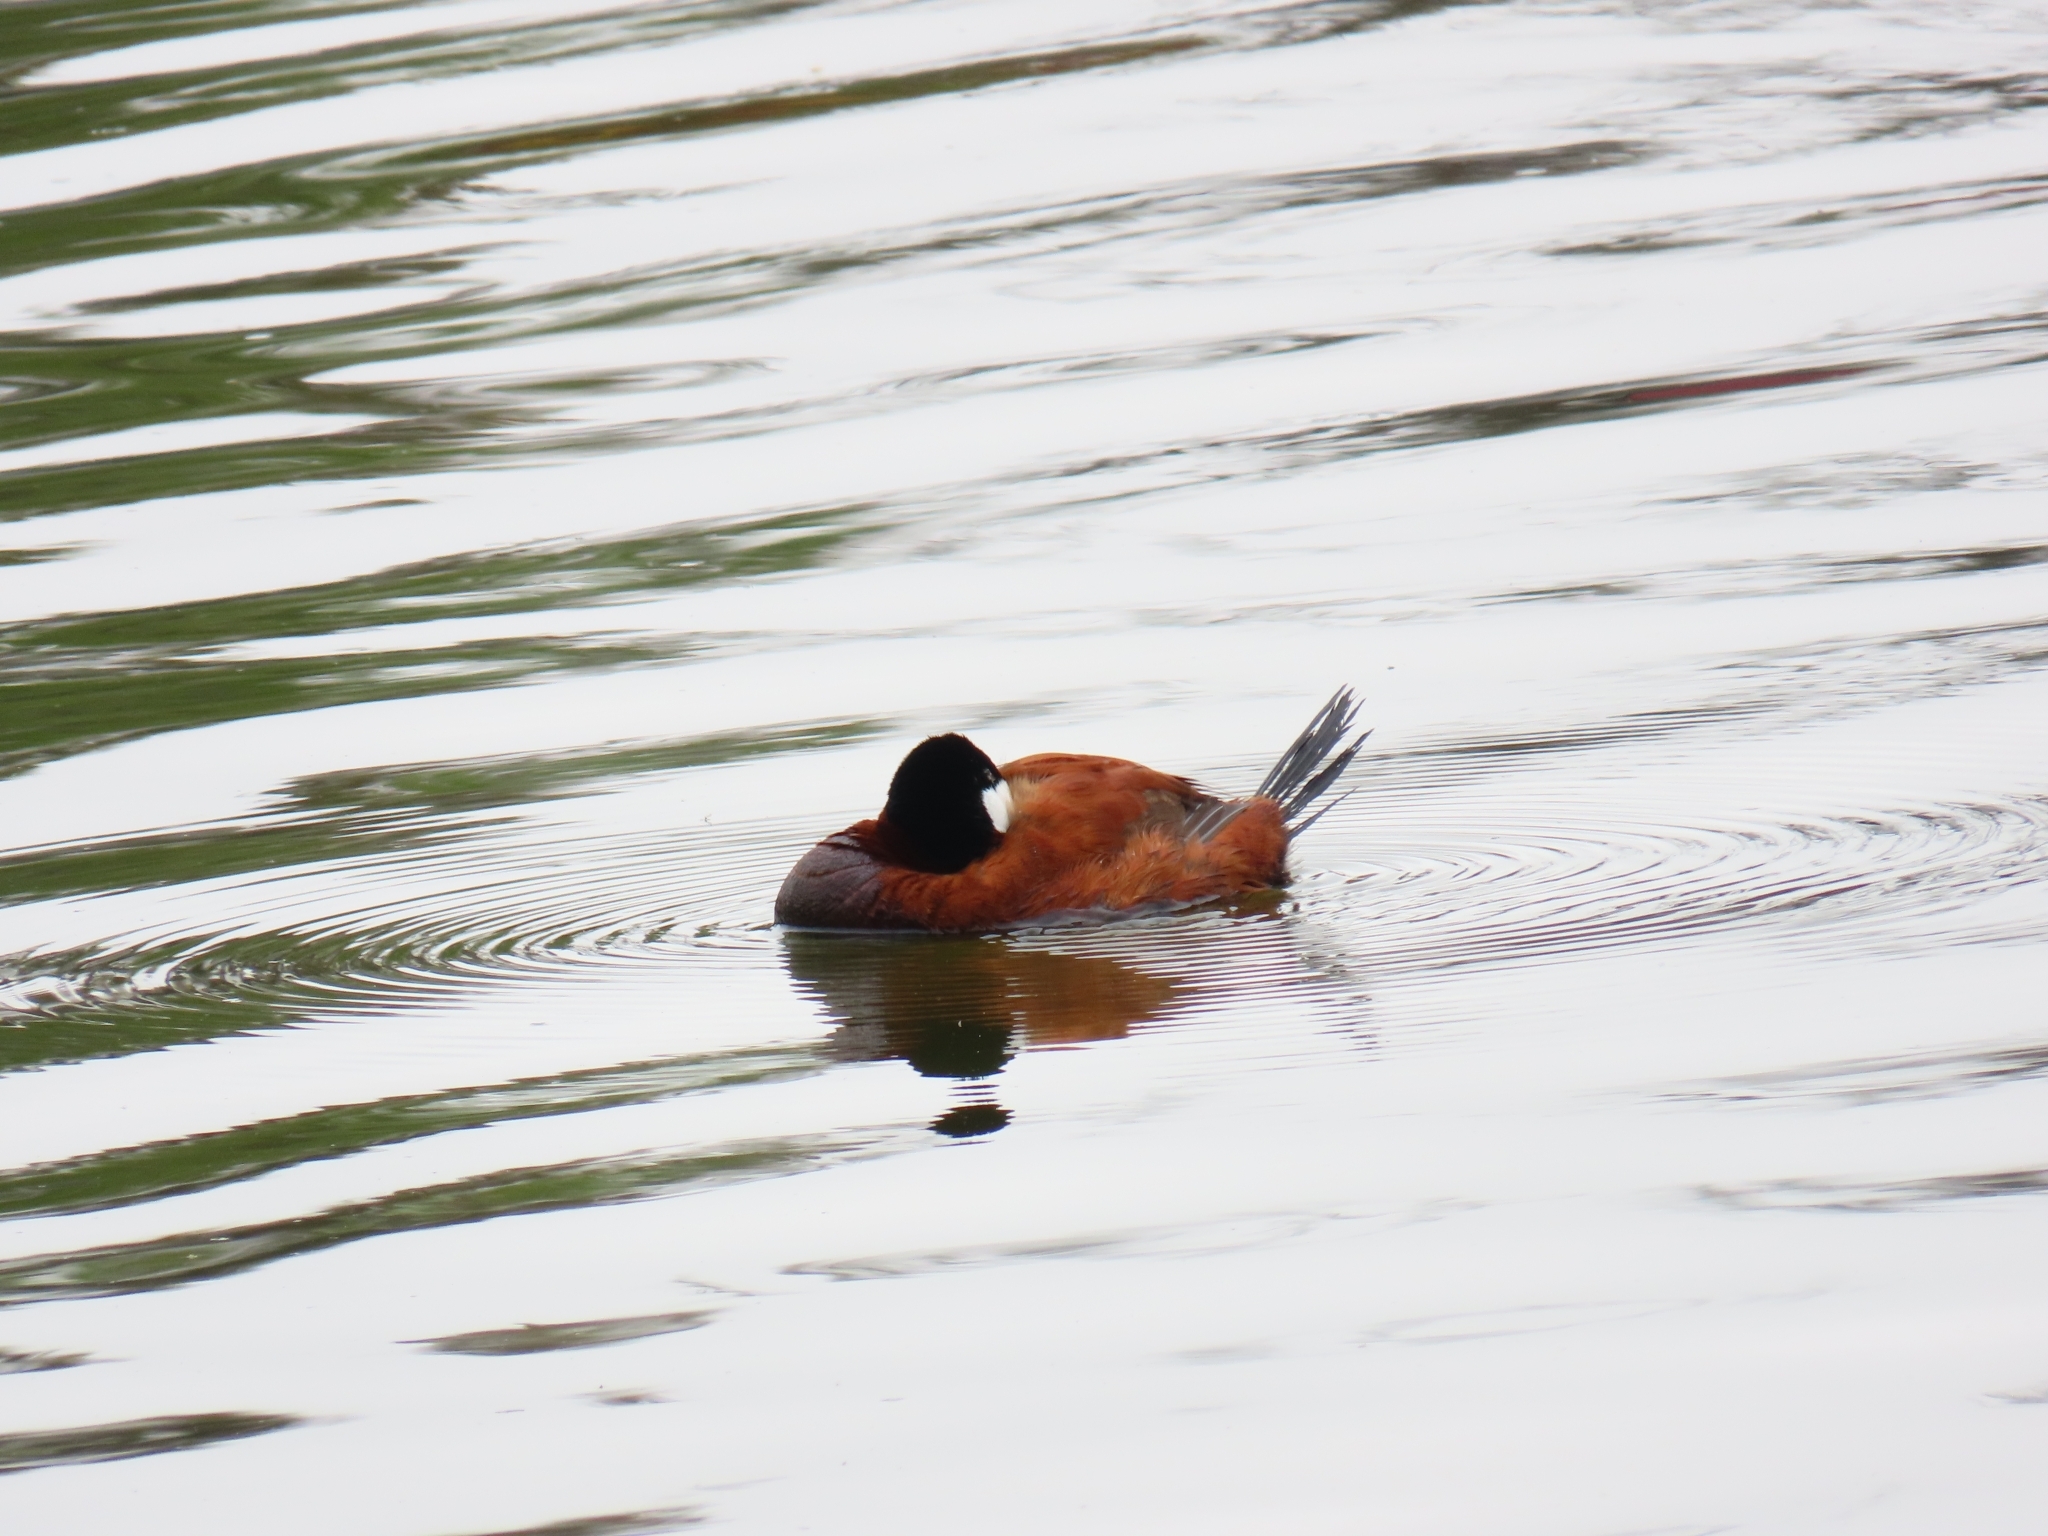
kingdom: Animalia
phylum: Chordata
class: Aves
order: Anseriformes
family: Anatidae
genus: Oxyura
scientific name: Oxyura jamaicensis
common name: Ruddy duck
